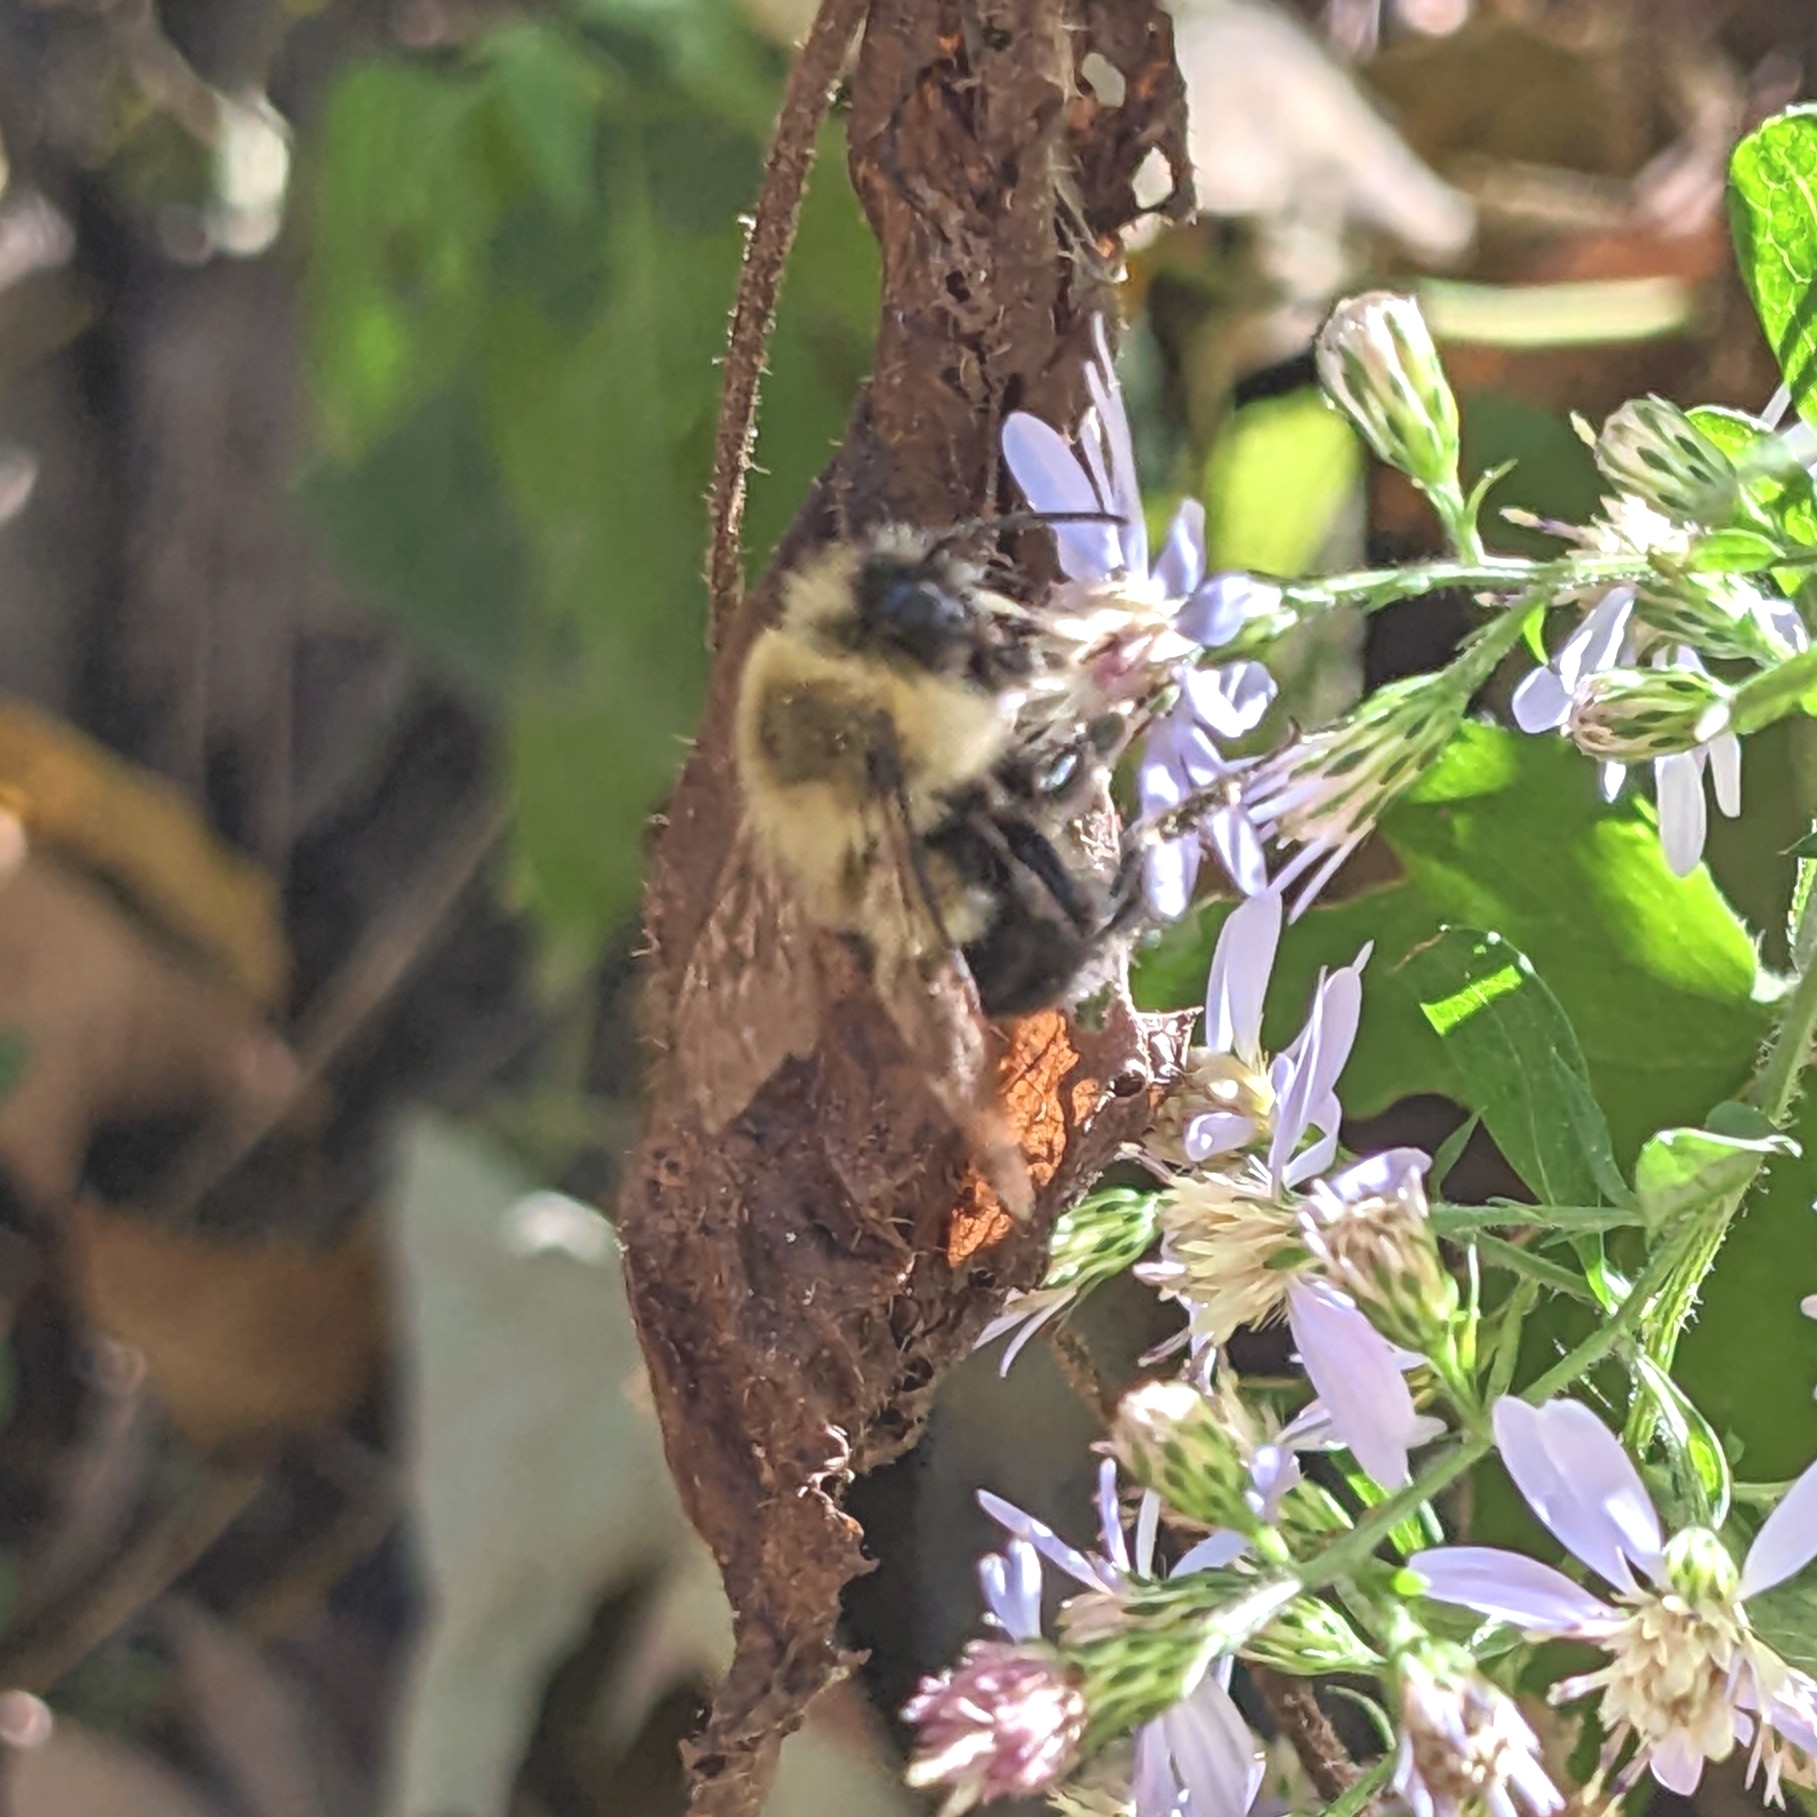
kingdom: Animalia
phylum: Arthropoda
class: Insecta
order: Hymenoptera
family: Apidae
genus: Bombus
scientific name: Bombus impatiens
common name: Common eastern bumble bee
